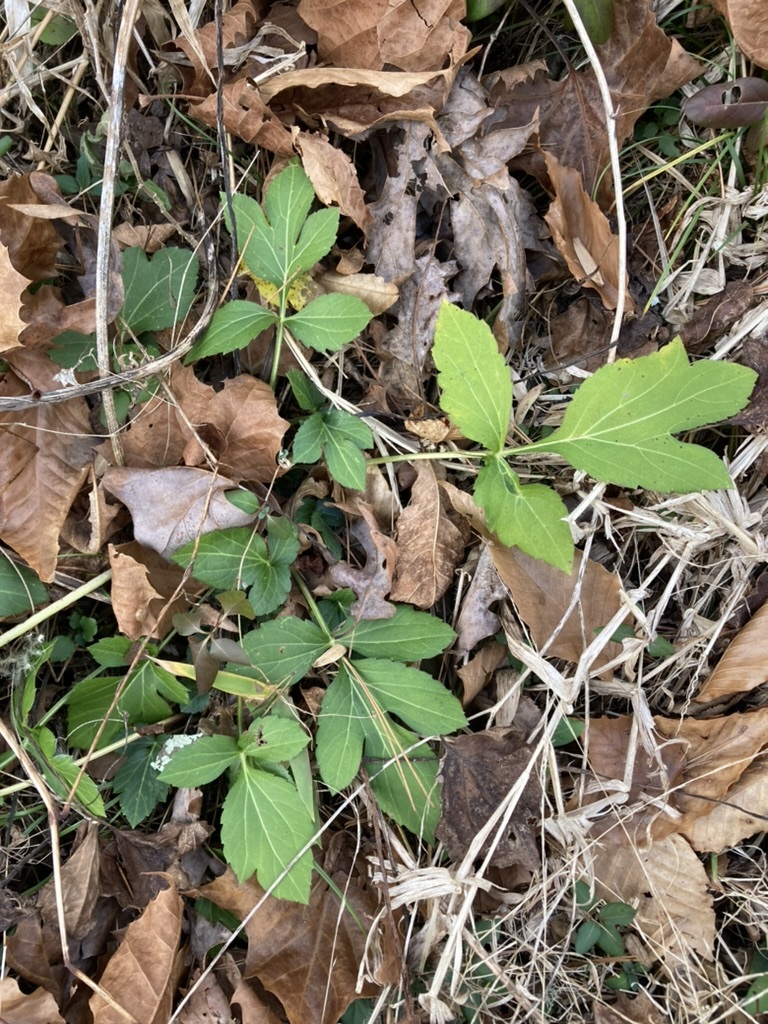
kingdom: Plantae
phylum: Tracheophyta
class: Magnoliopsida
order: Asterales
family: Asteraceae
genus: Rudbeckia
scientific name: Rudbeckia laciniata
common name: Coneflower
